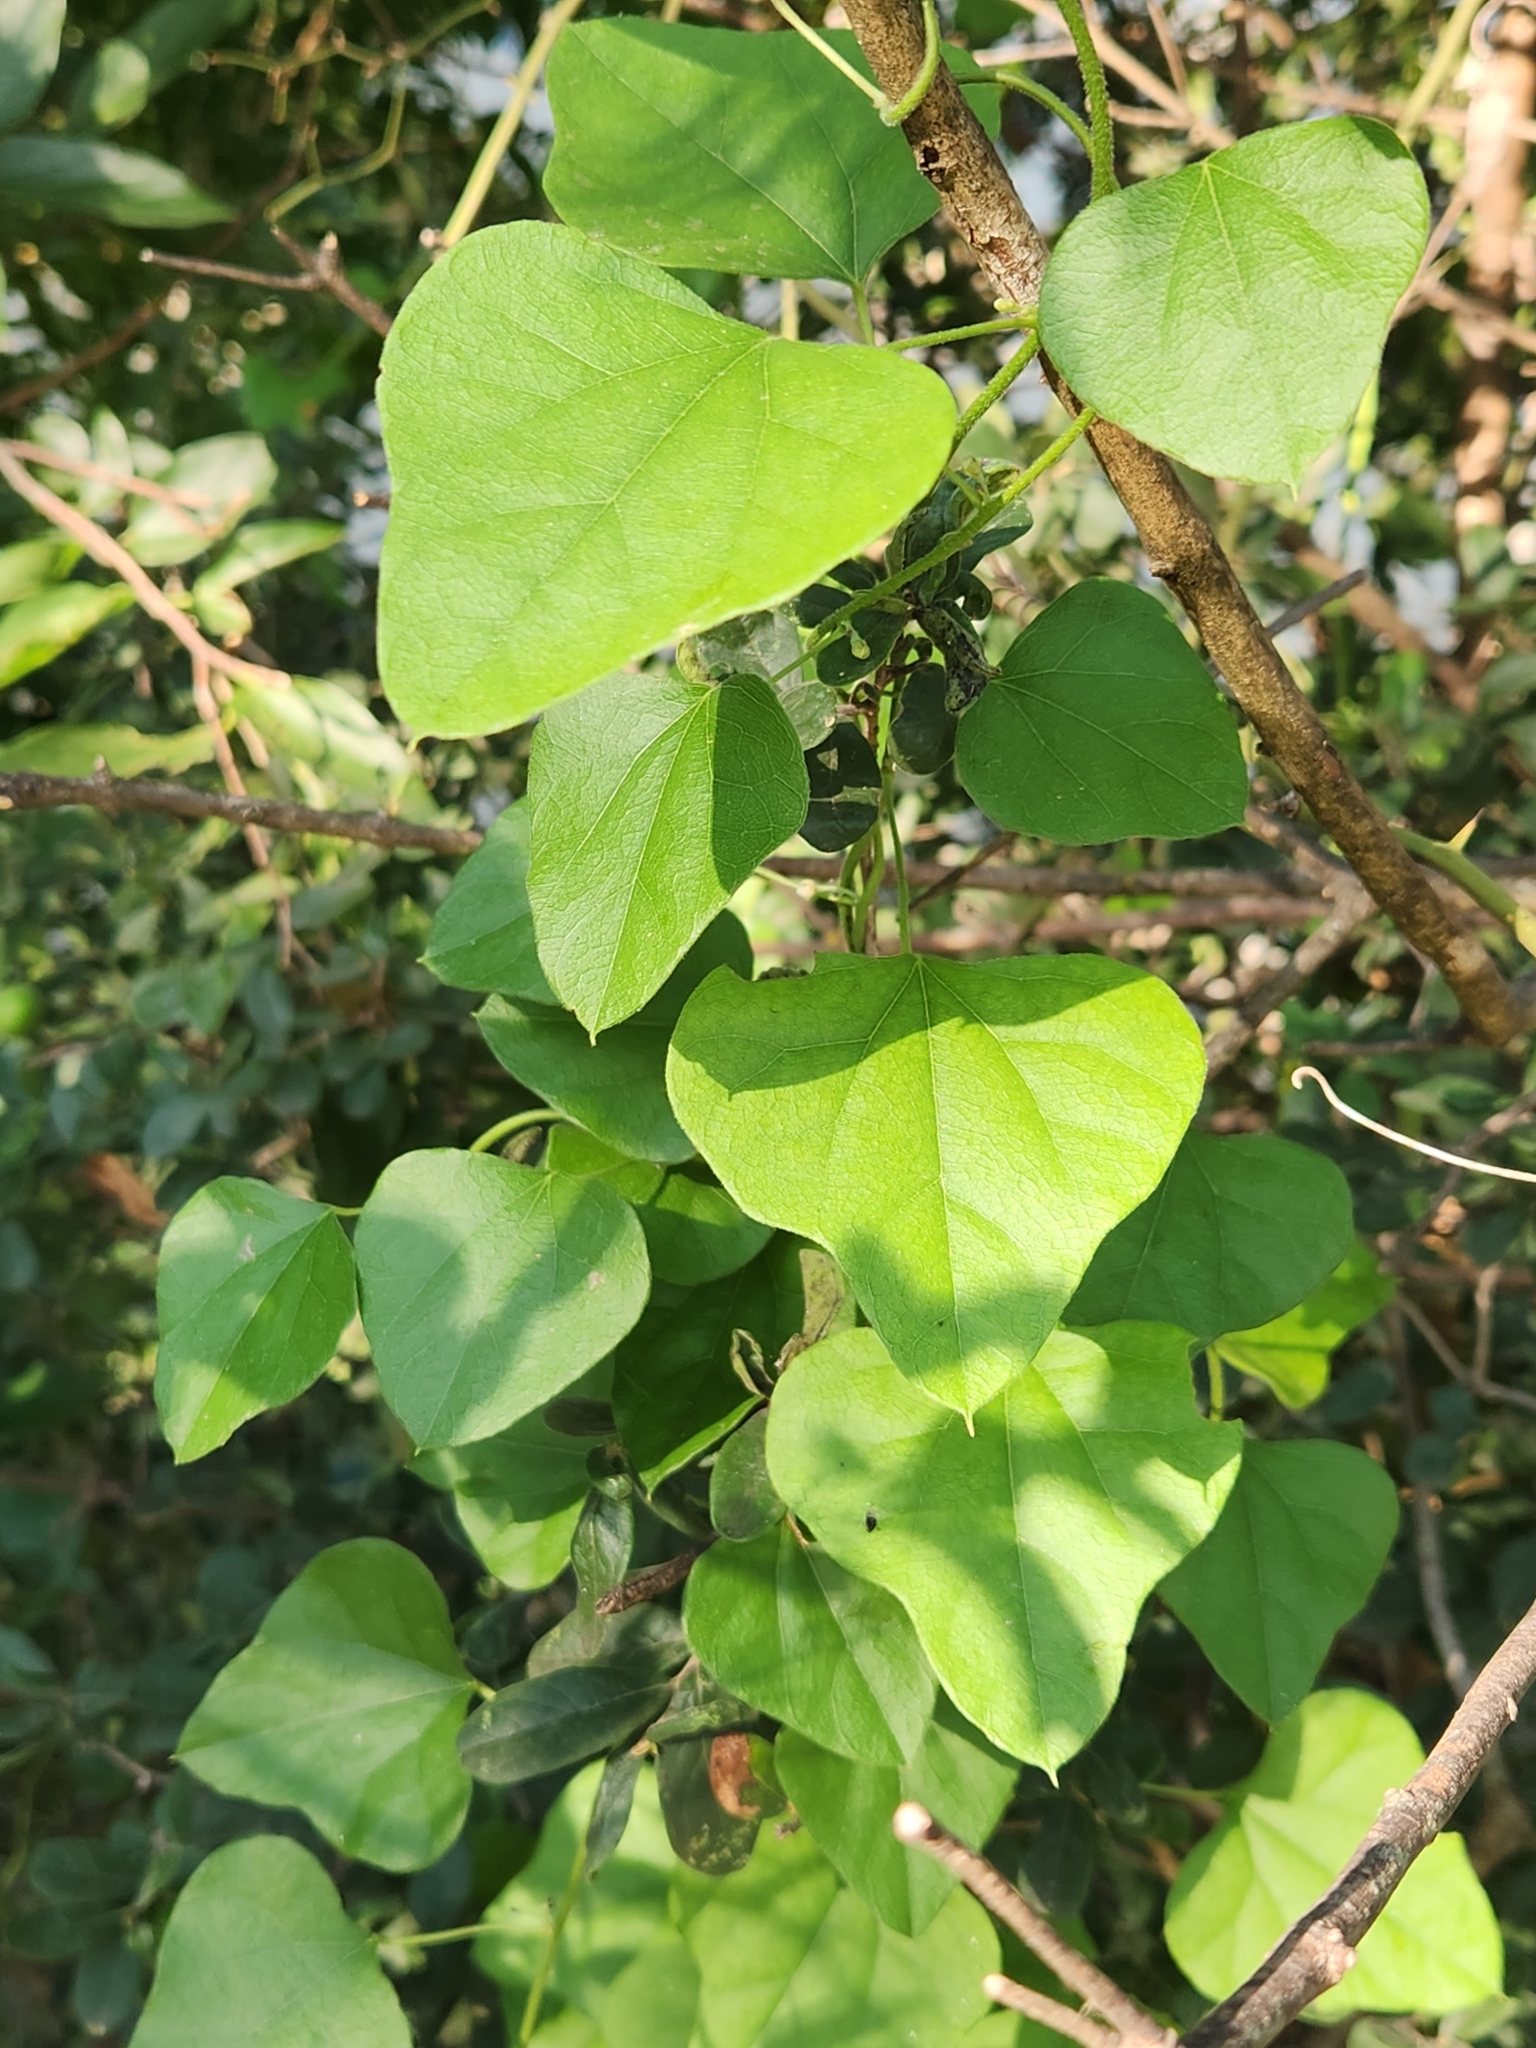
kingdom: Plantae
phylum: Tracheophyta
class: Magnoliopsida
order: Ranunculales
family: Menispermaceae
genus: Cocculus
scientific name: Cocculus carolinus
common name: Carolina moonseed
